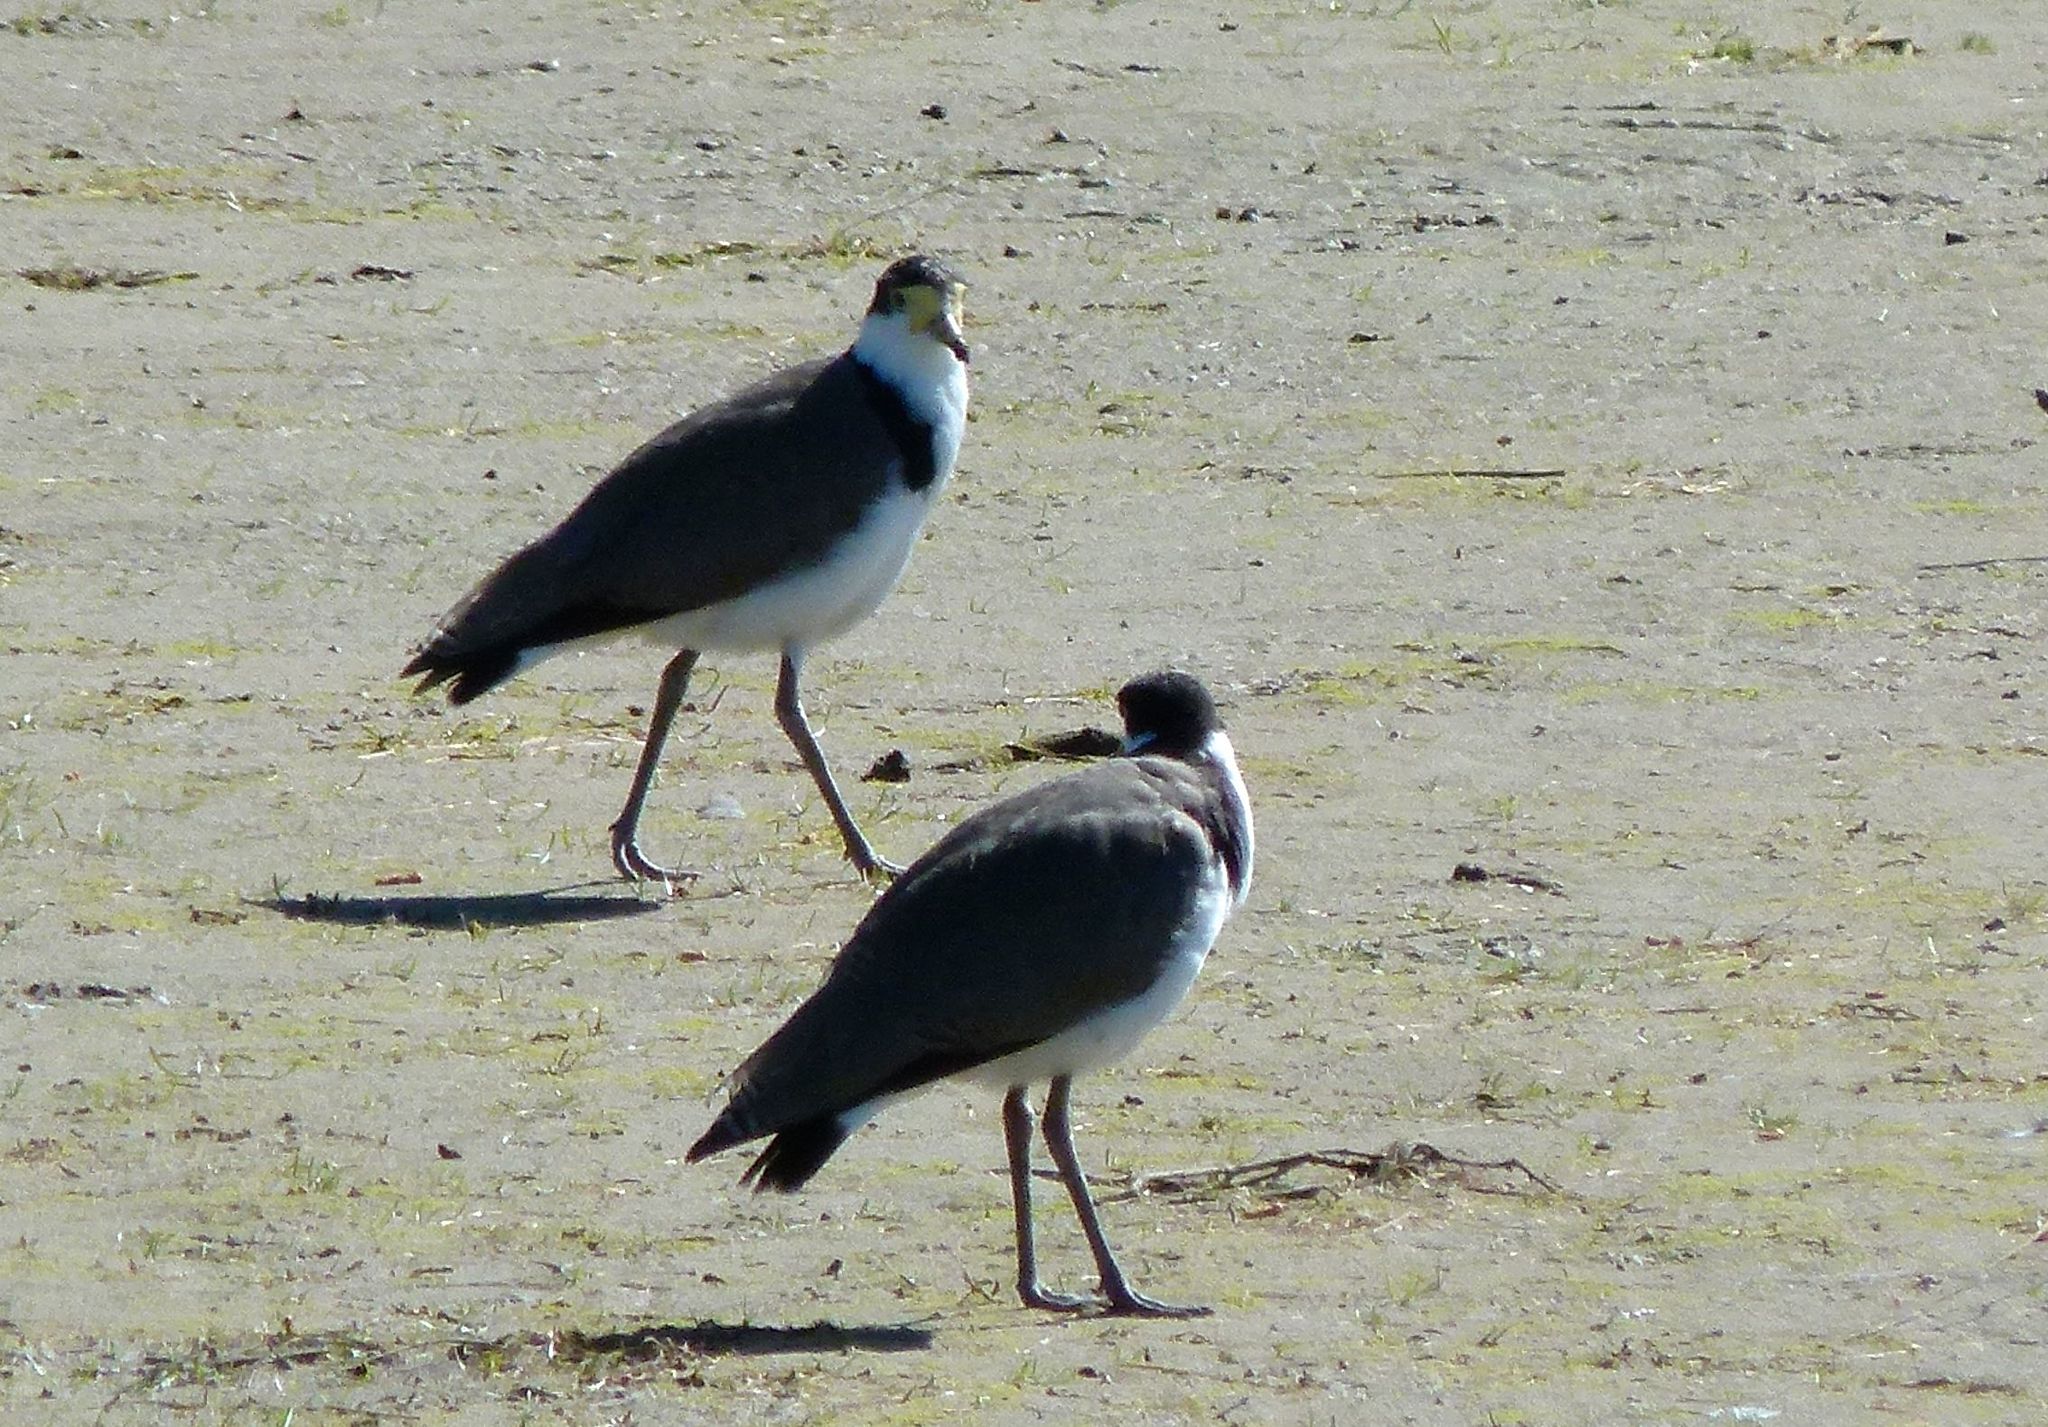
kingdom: Animalia
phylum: Chordata
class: Aves
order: Charadriiformes
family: Charadriidae
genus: Vanellus
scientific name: Vanellus miles
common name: Masked lapwing
